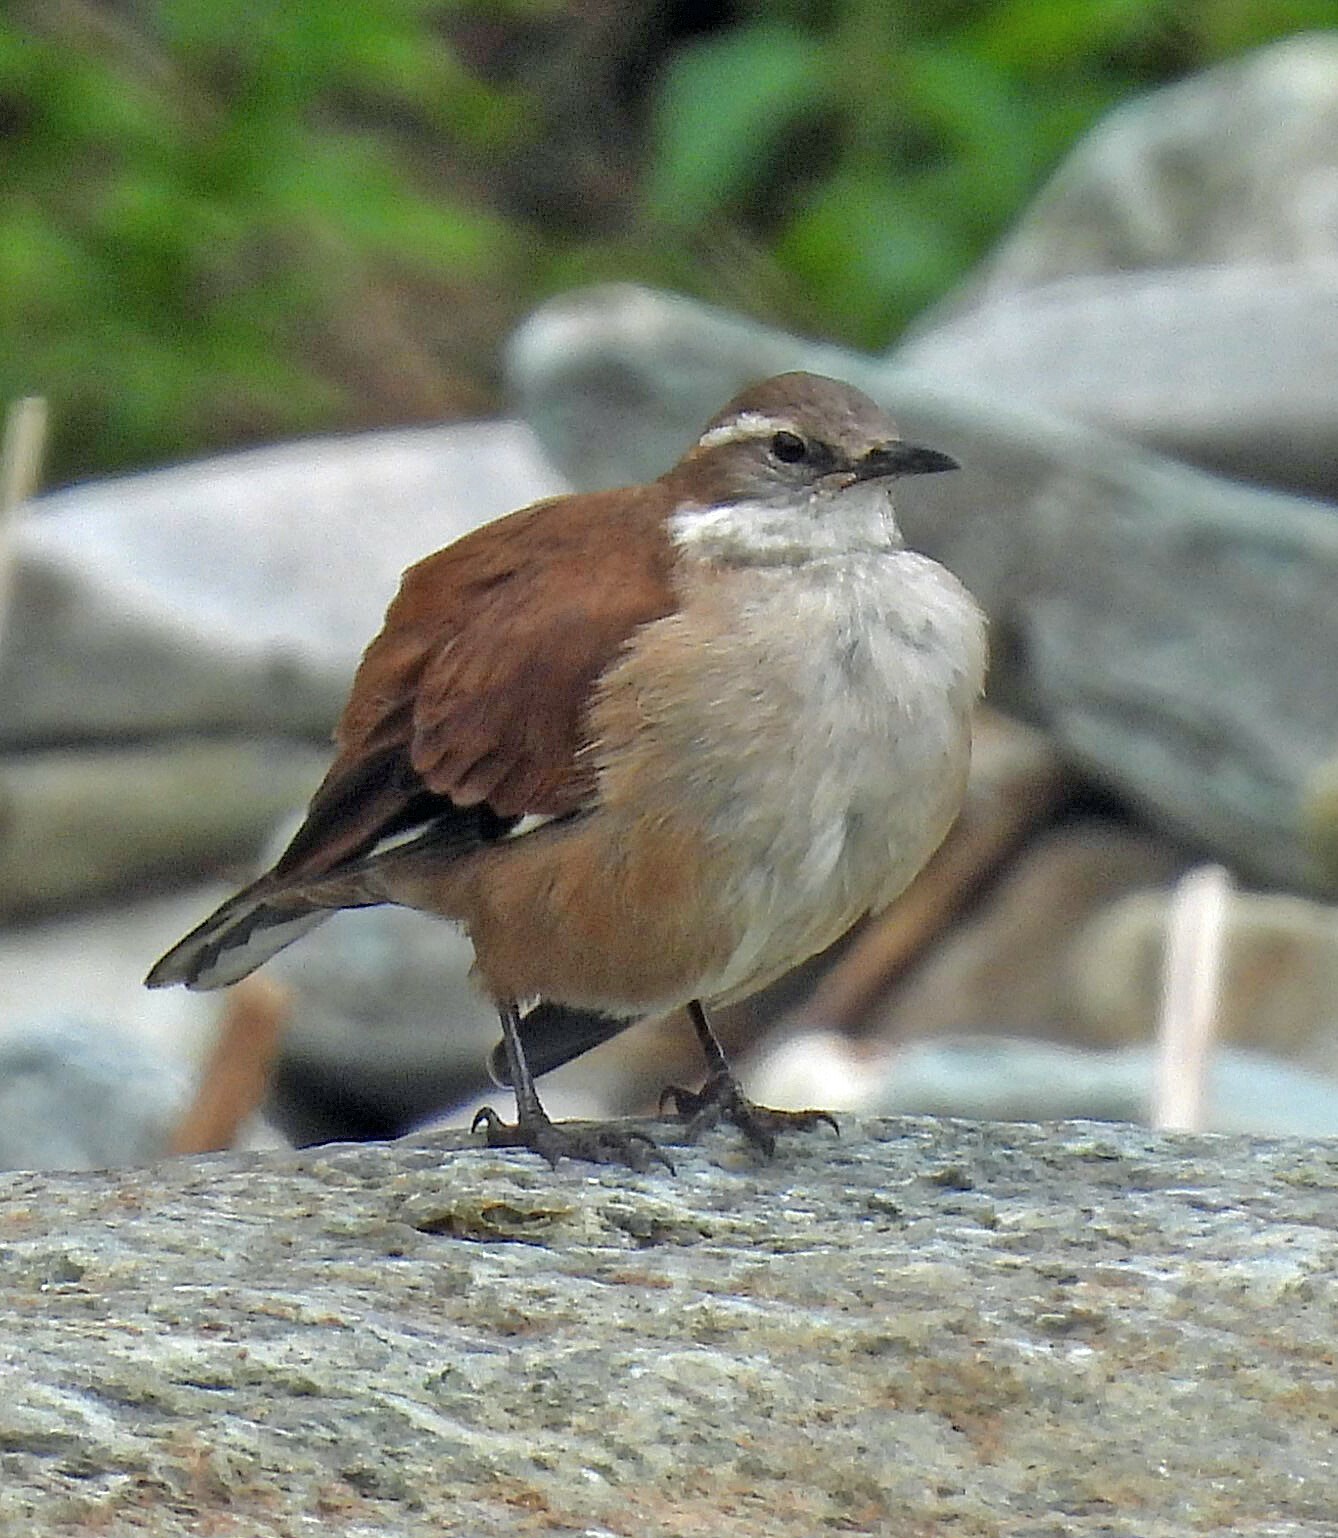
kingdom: Animalia
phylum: Chordata
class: Aves
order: Passeriformes
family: Furnariidae
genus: Cinclodes
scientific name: Cinclodes atacamensis
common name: White-winged cinclodes
